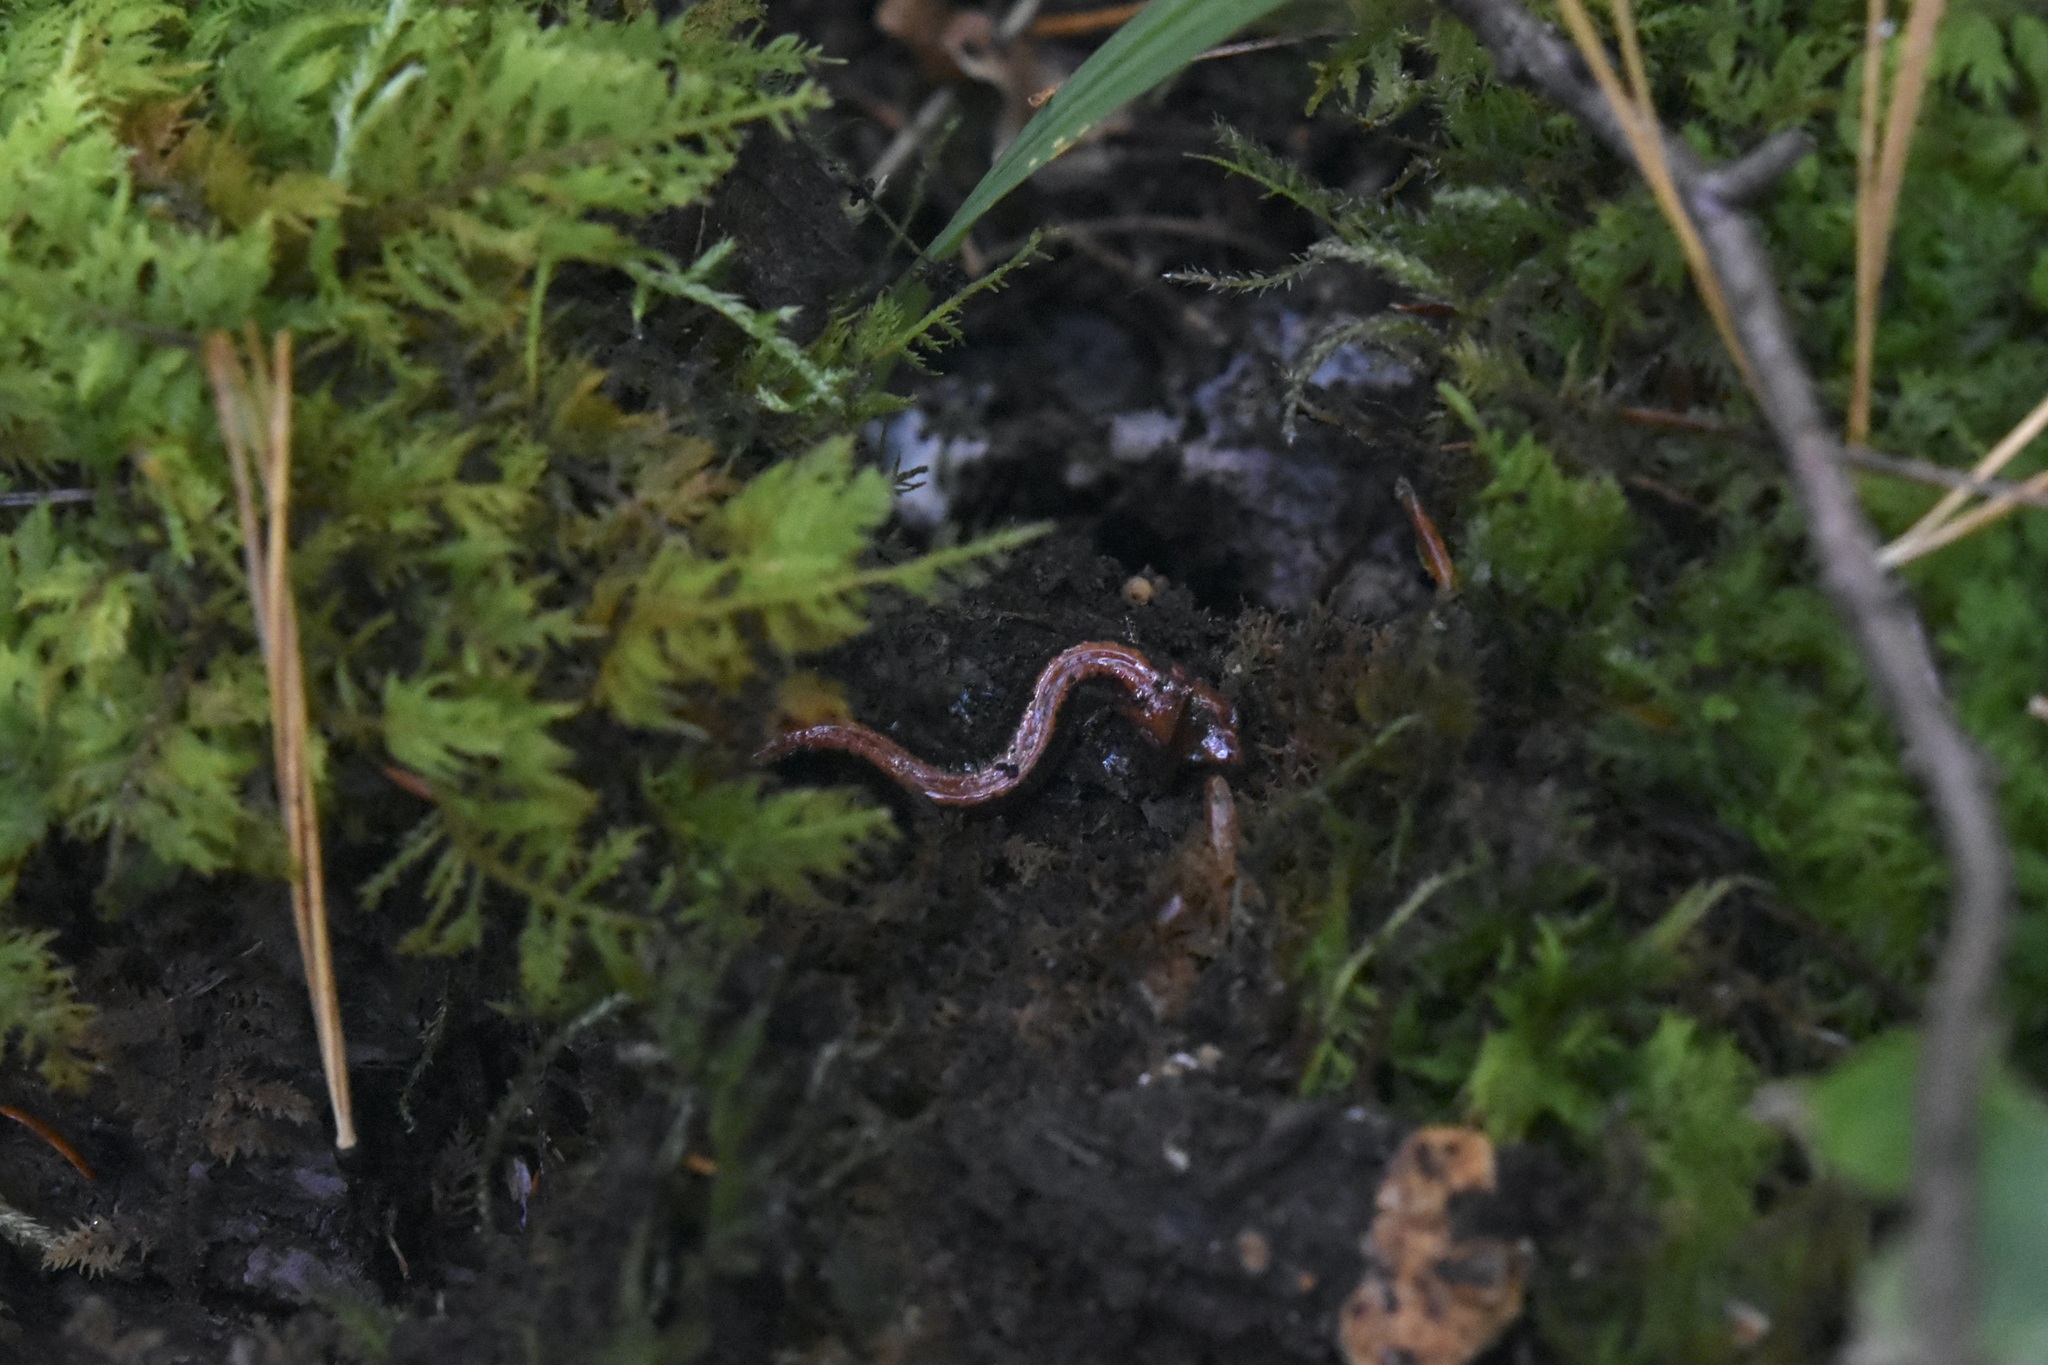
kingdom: Animalia
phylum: Chordata
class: Amphibia
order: Caudata
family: Plethodontidae
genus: Plethodon
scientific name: Plethodon cinereus
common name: Redback salamander
